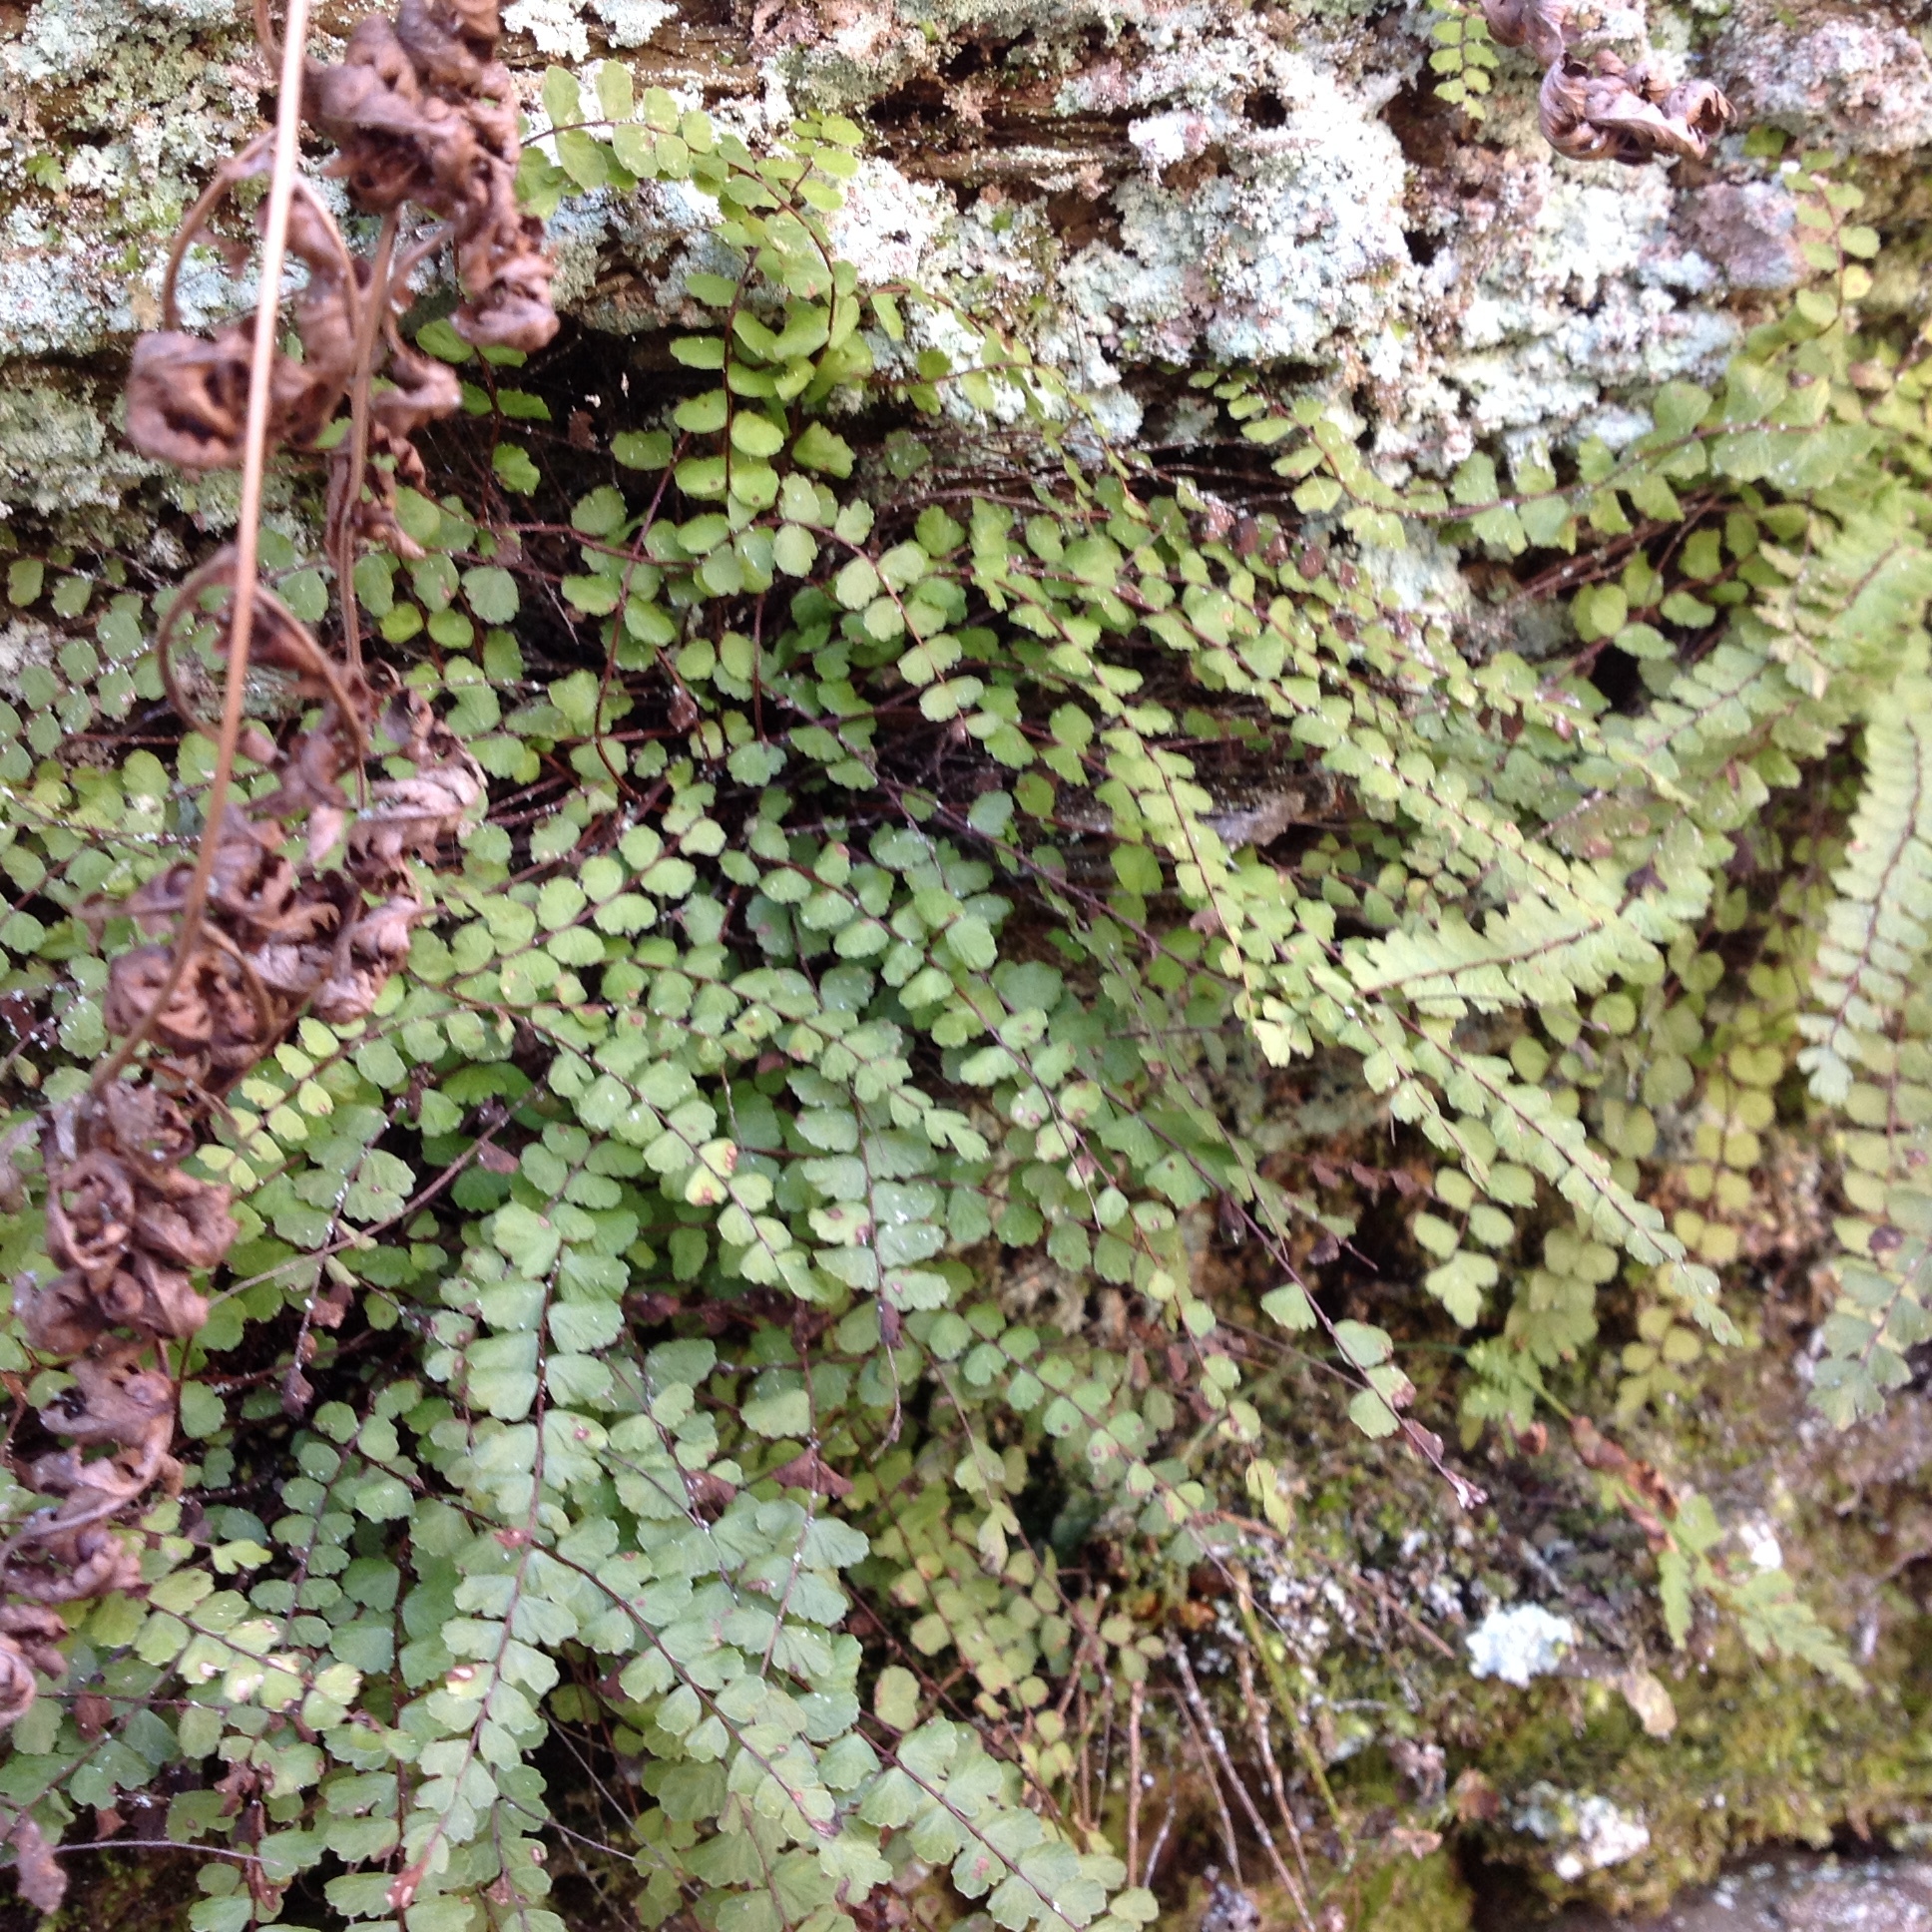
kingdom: Plantae
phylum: Tracheophyta
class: Polypodiopsida
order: Polypodiales
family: Aspleniaceae
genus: Asplenium
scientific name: Asplenium trichomanes
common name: Maidenhair spleenwort
